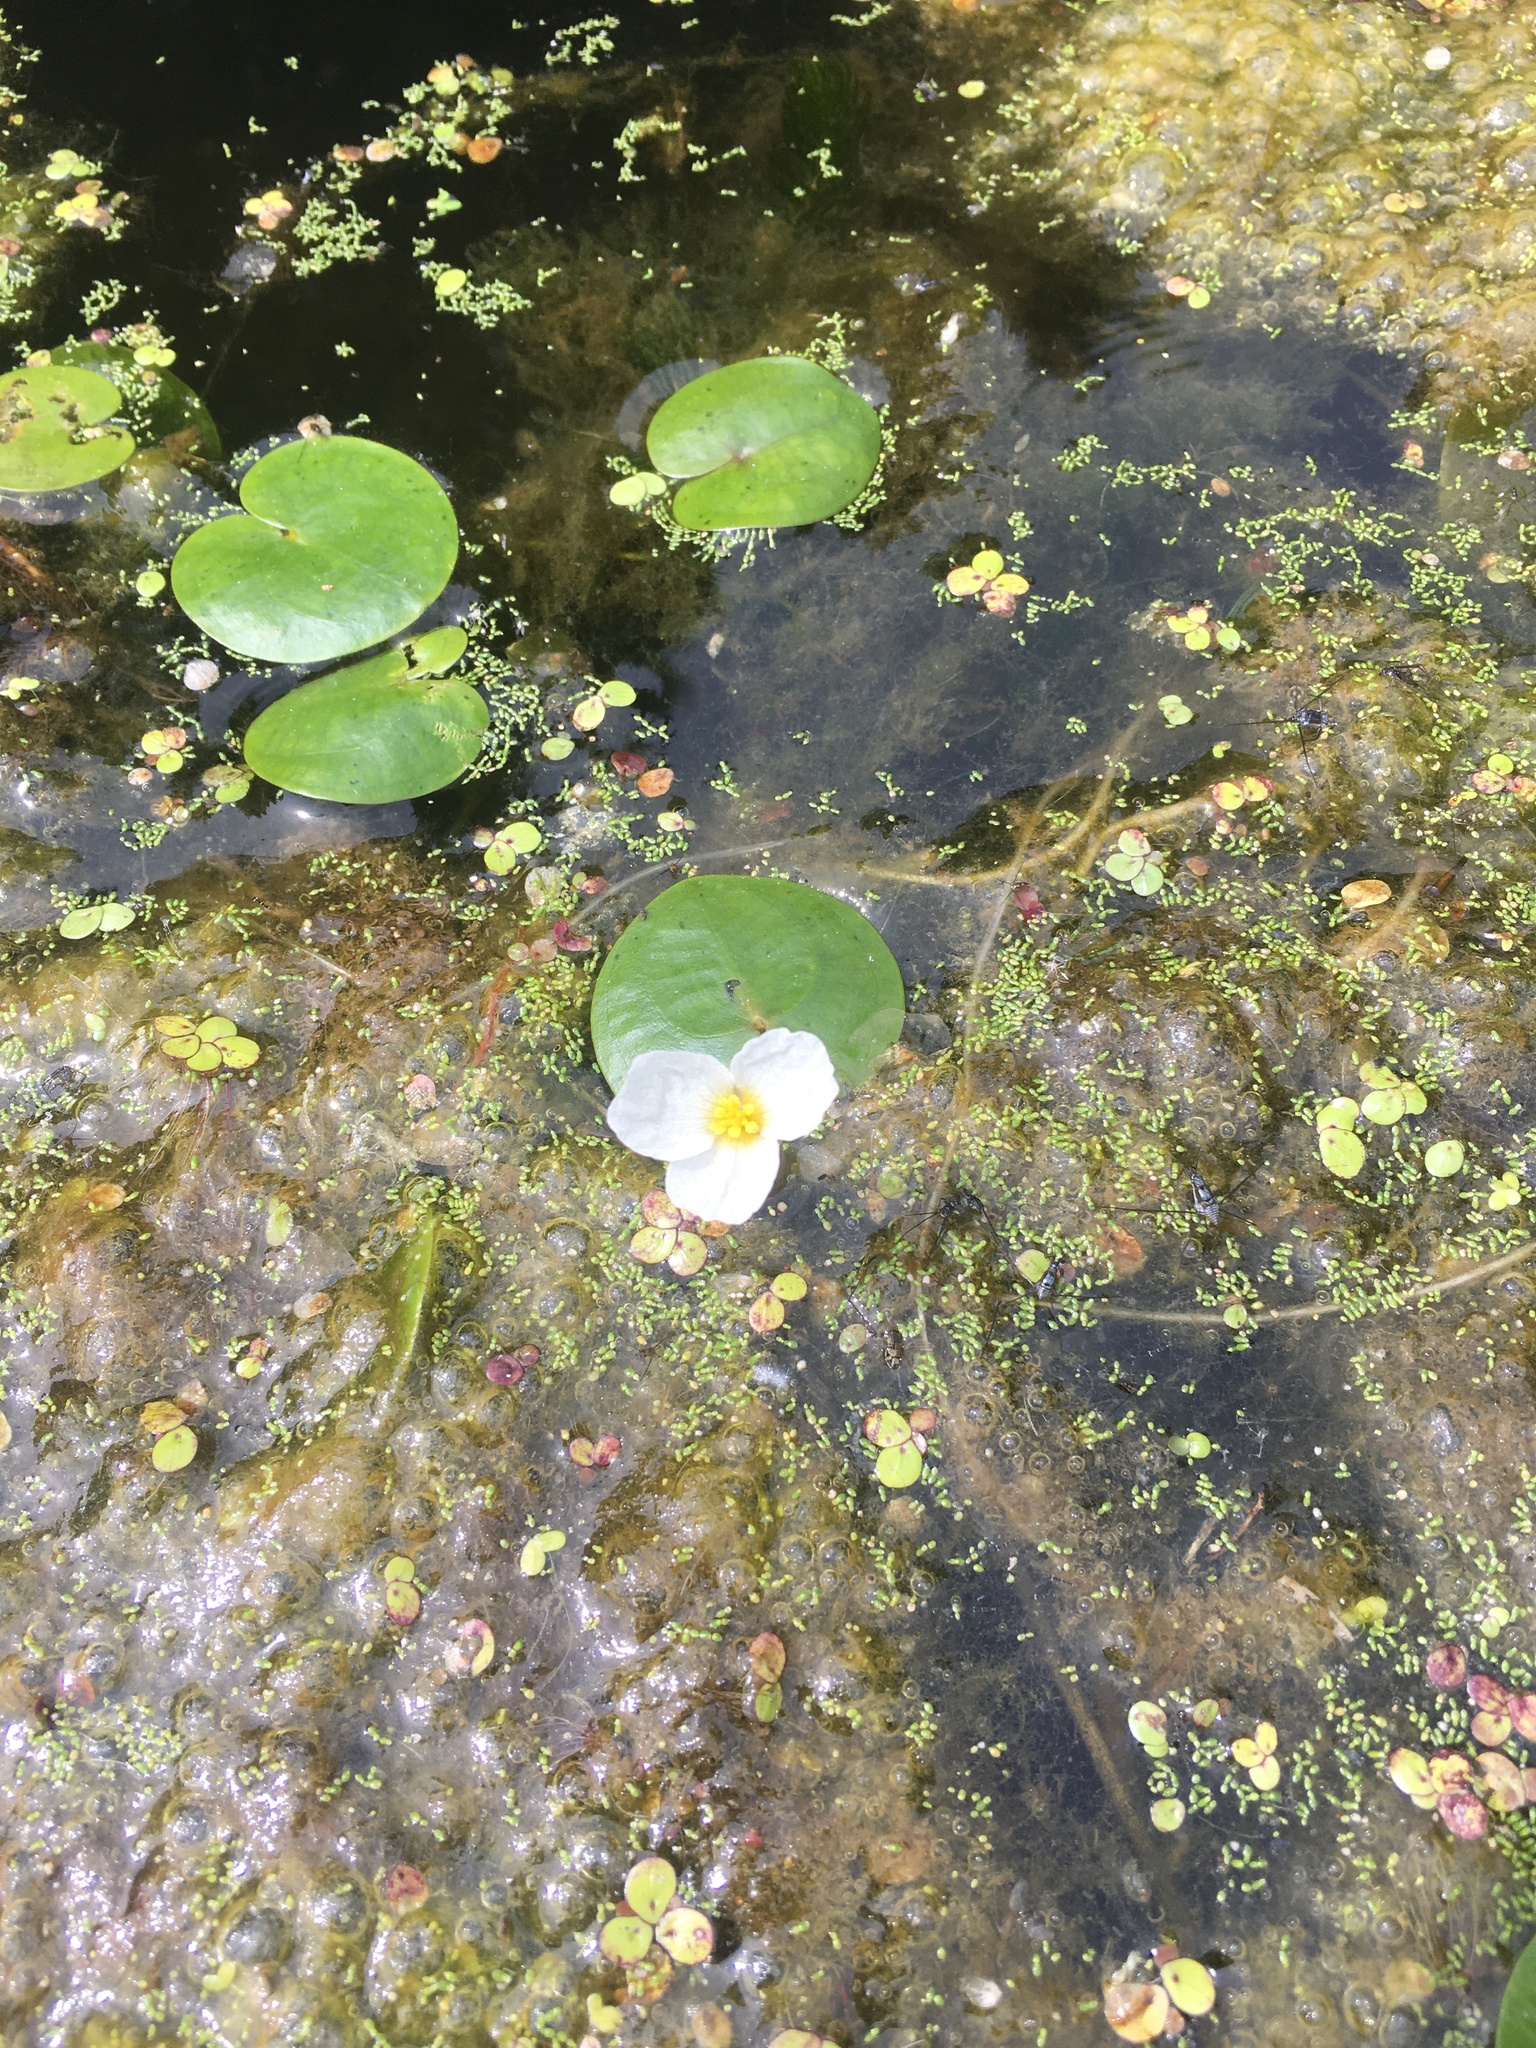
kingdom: Plantae
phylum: Tracheophyta
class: Liliopsida
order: Alismatales
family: Hydrocharitaceae
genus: Hydrocharis
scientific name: Hydrocharis morsus-ranae
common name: Frogbit
